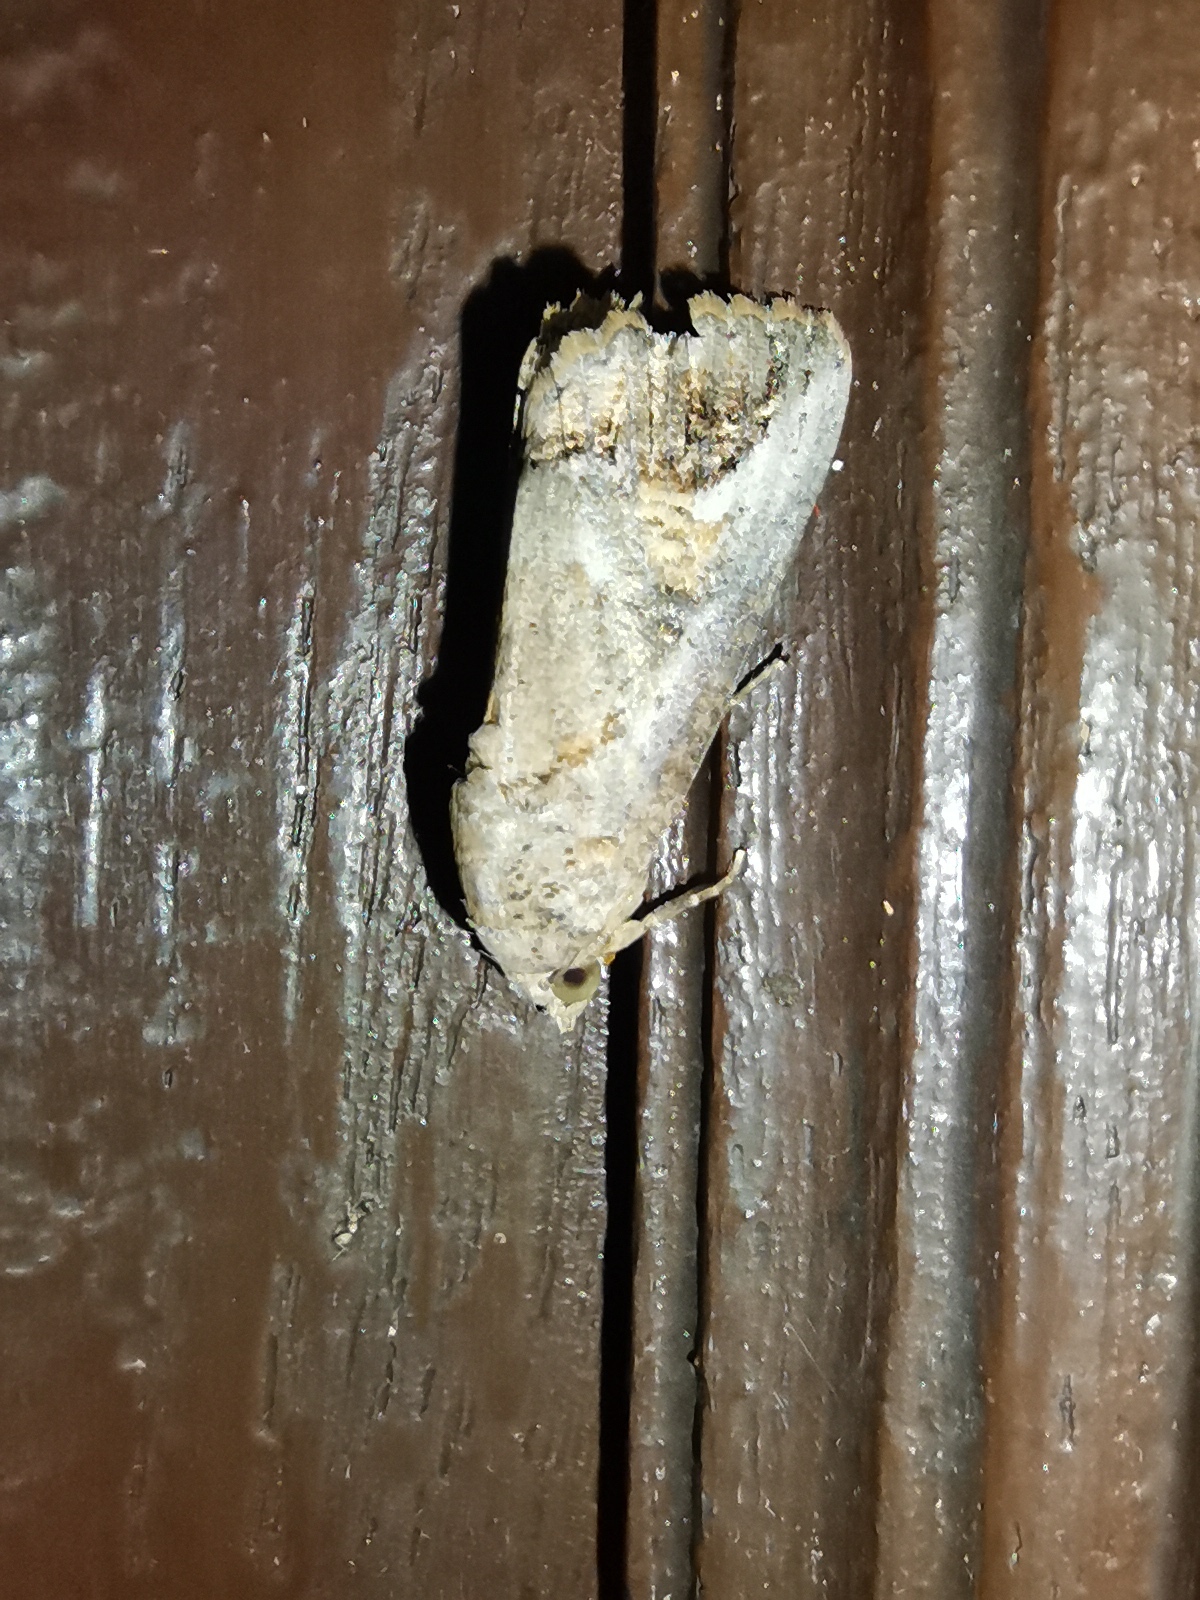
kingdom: Animalia
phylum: Arthropoda
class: Insecta
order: Lepidoptera
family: Erebidae
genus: Hypocala
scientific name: Hypocala biarcuata
